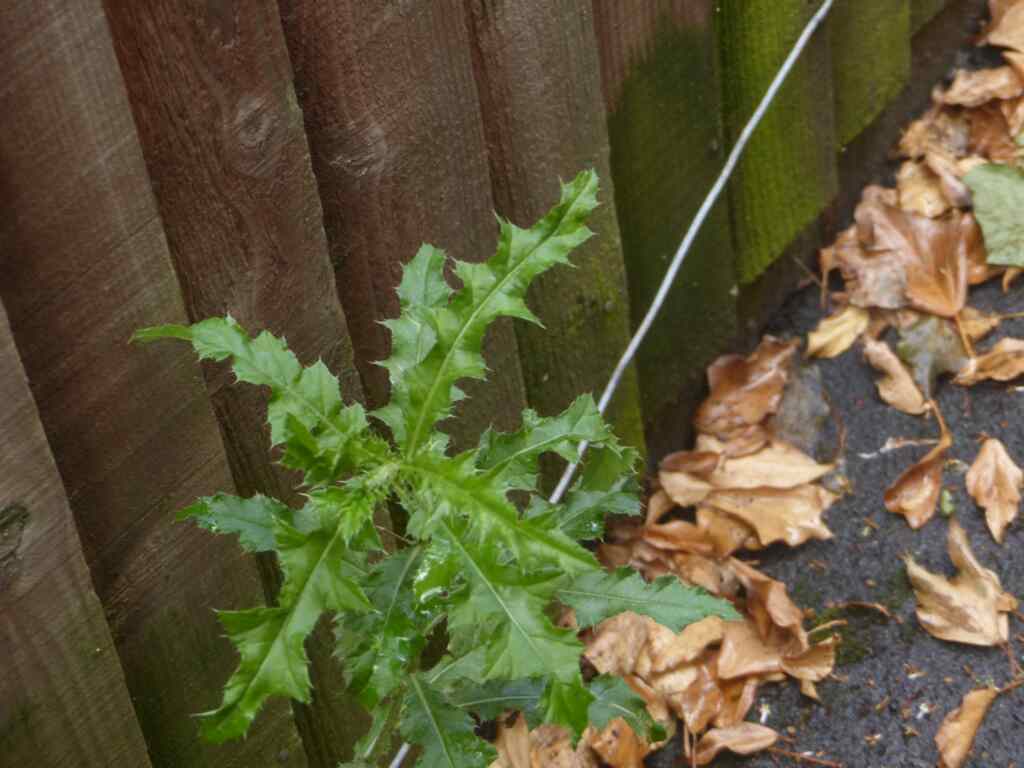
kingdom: Plantae
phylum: Tracheophyta
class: Magnoliopsida
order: Asterales
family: Asteraceae
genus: Cirsium
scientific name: Cirsium arvense
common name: Creeping thistle
